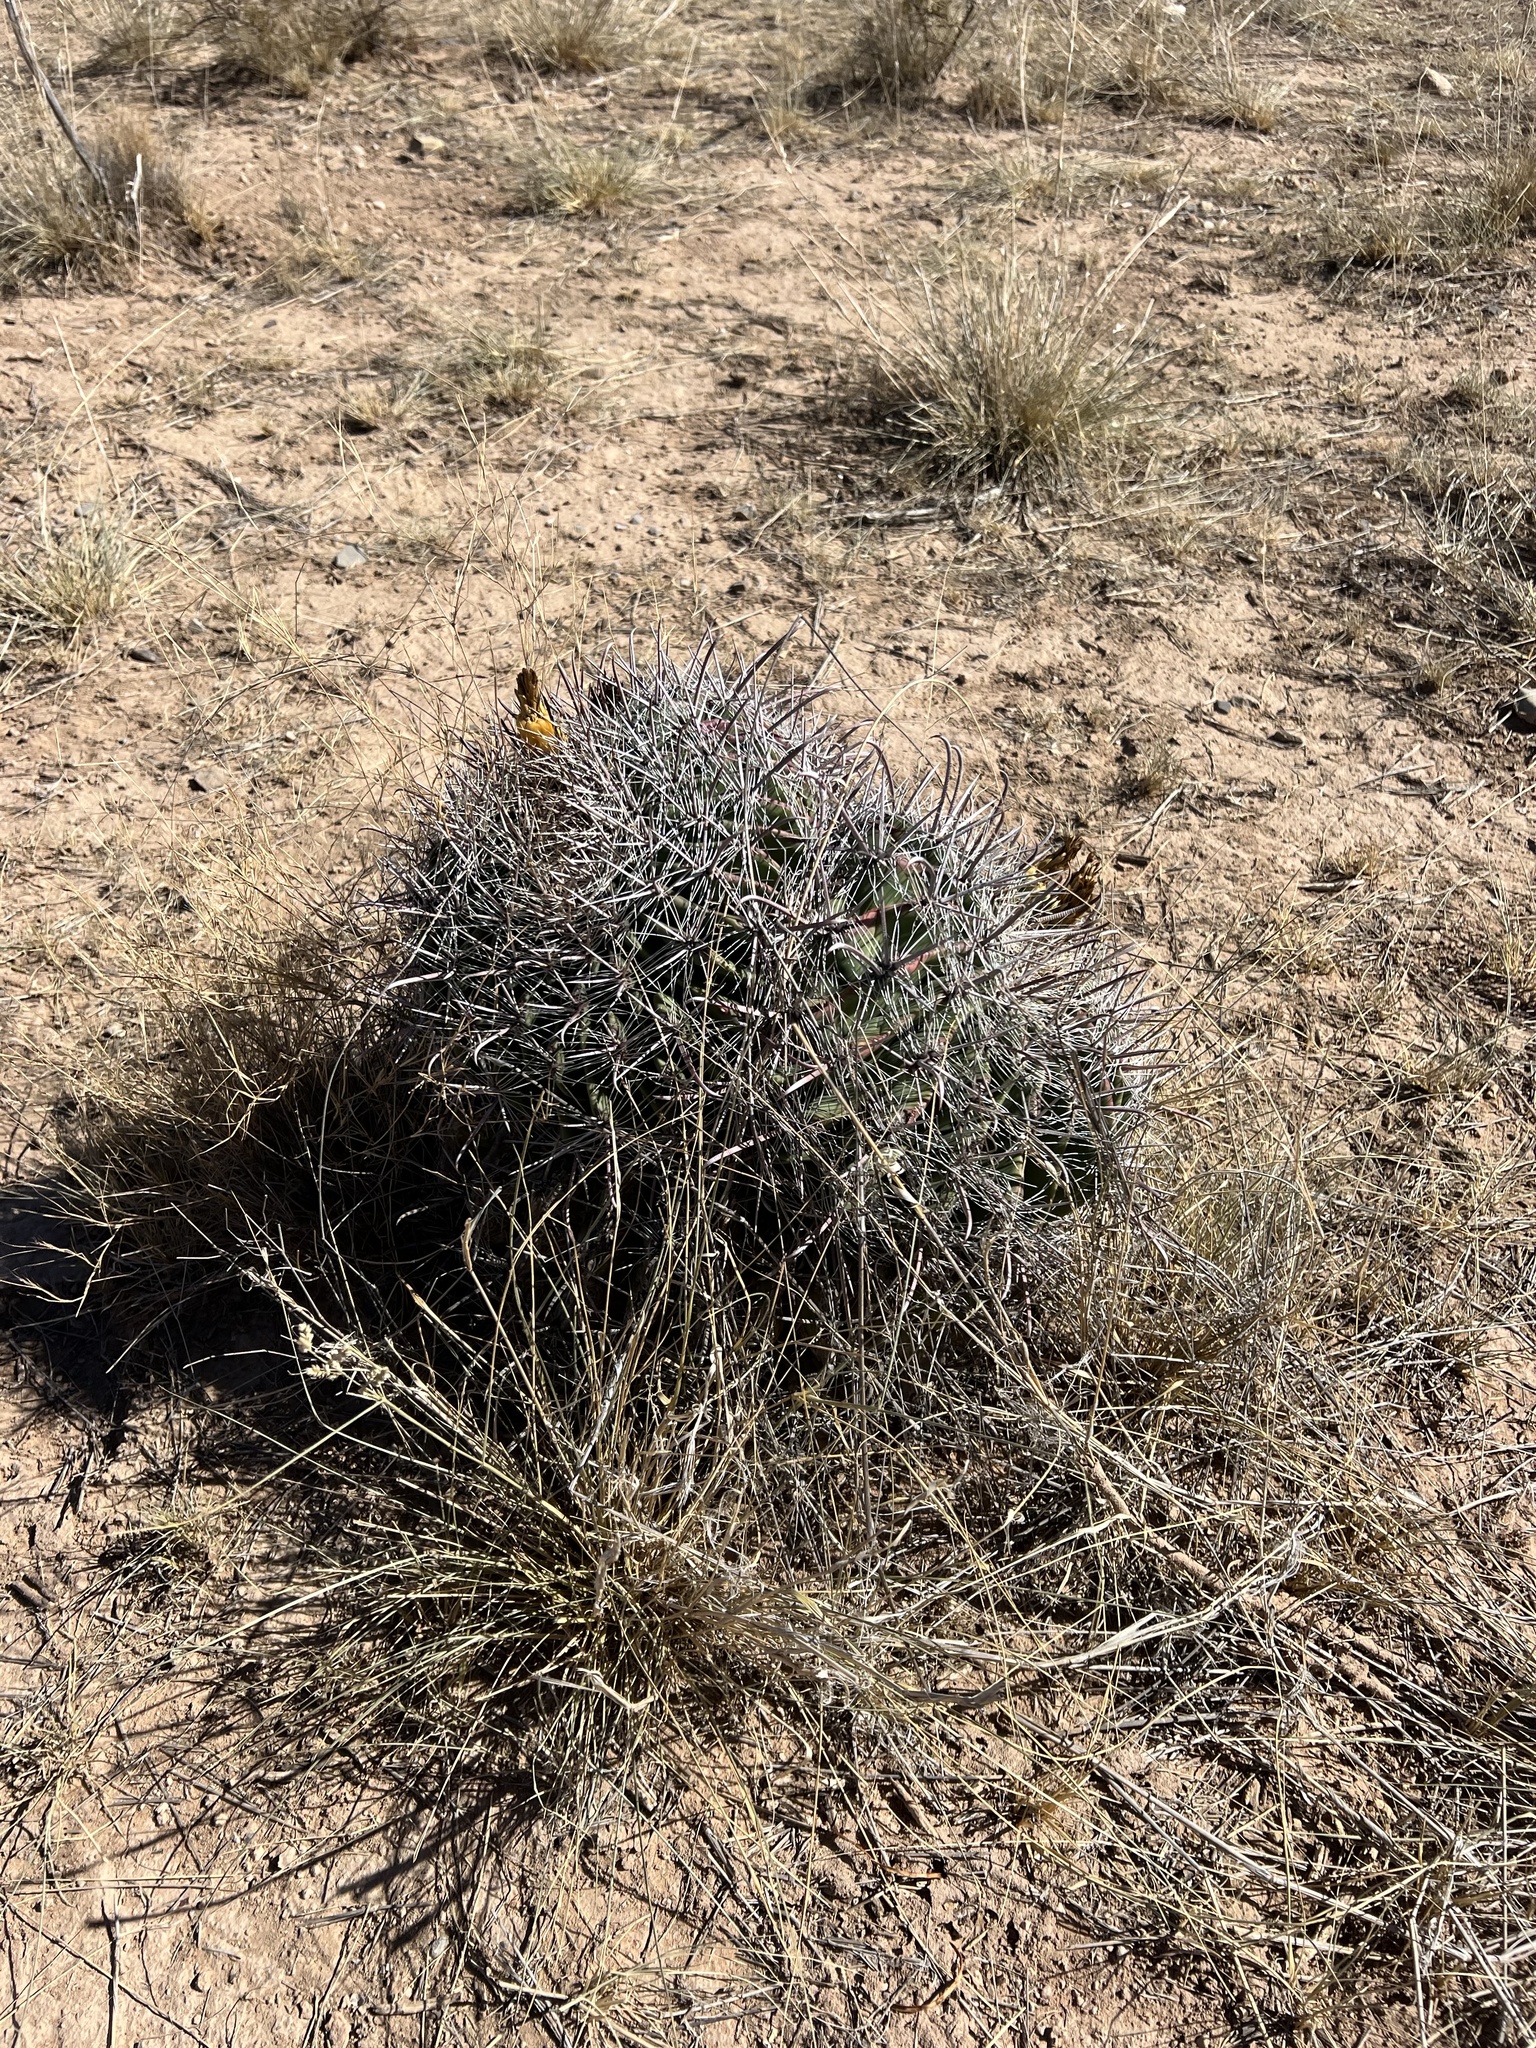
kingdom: Plantae
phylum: Tracheophyta
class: Magnoliopsida
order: Caryophyllales
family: Cactaceae
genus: Ferocactus
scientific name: Ferocactus wislizeni
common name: Candy barrel cactus
